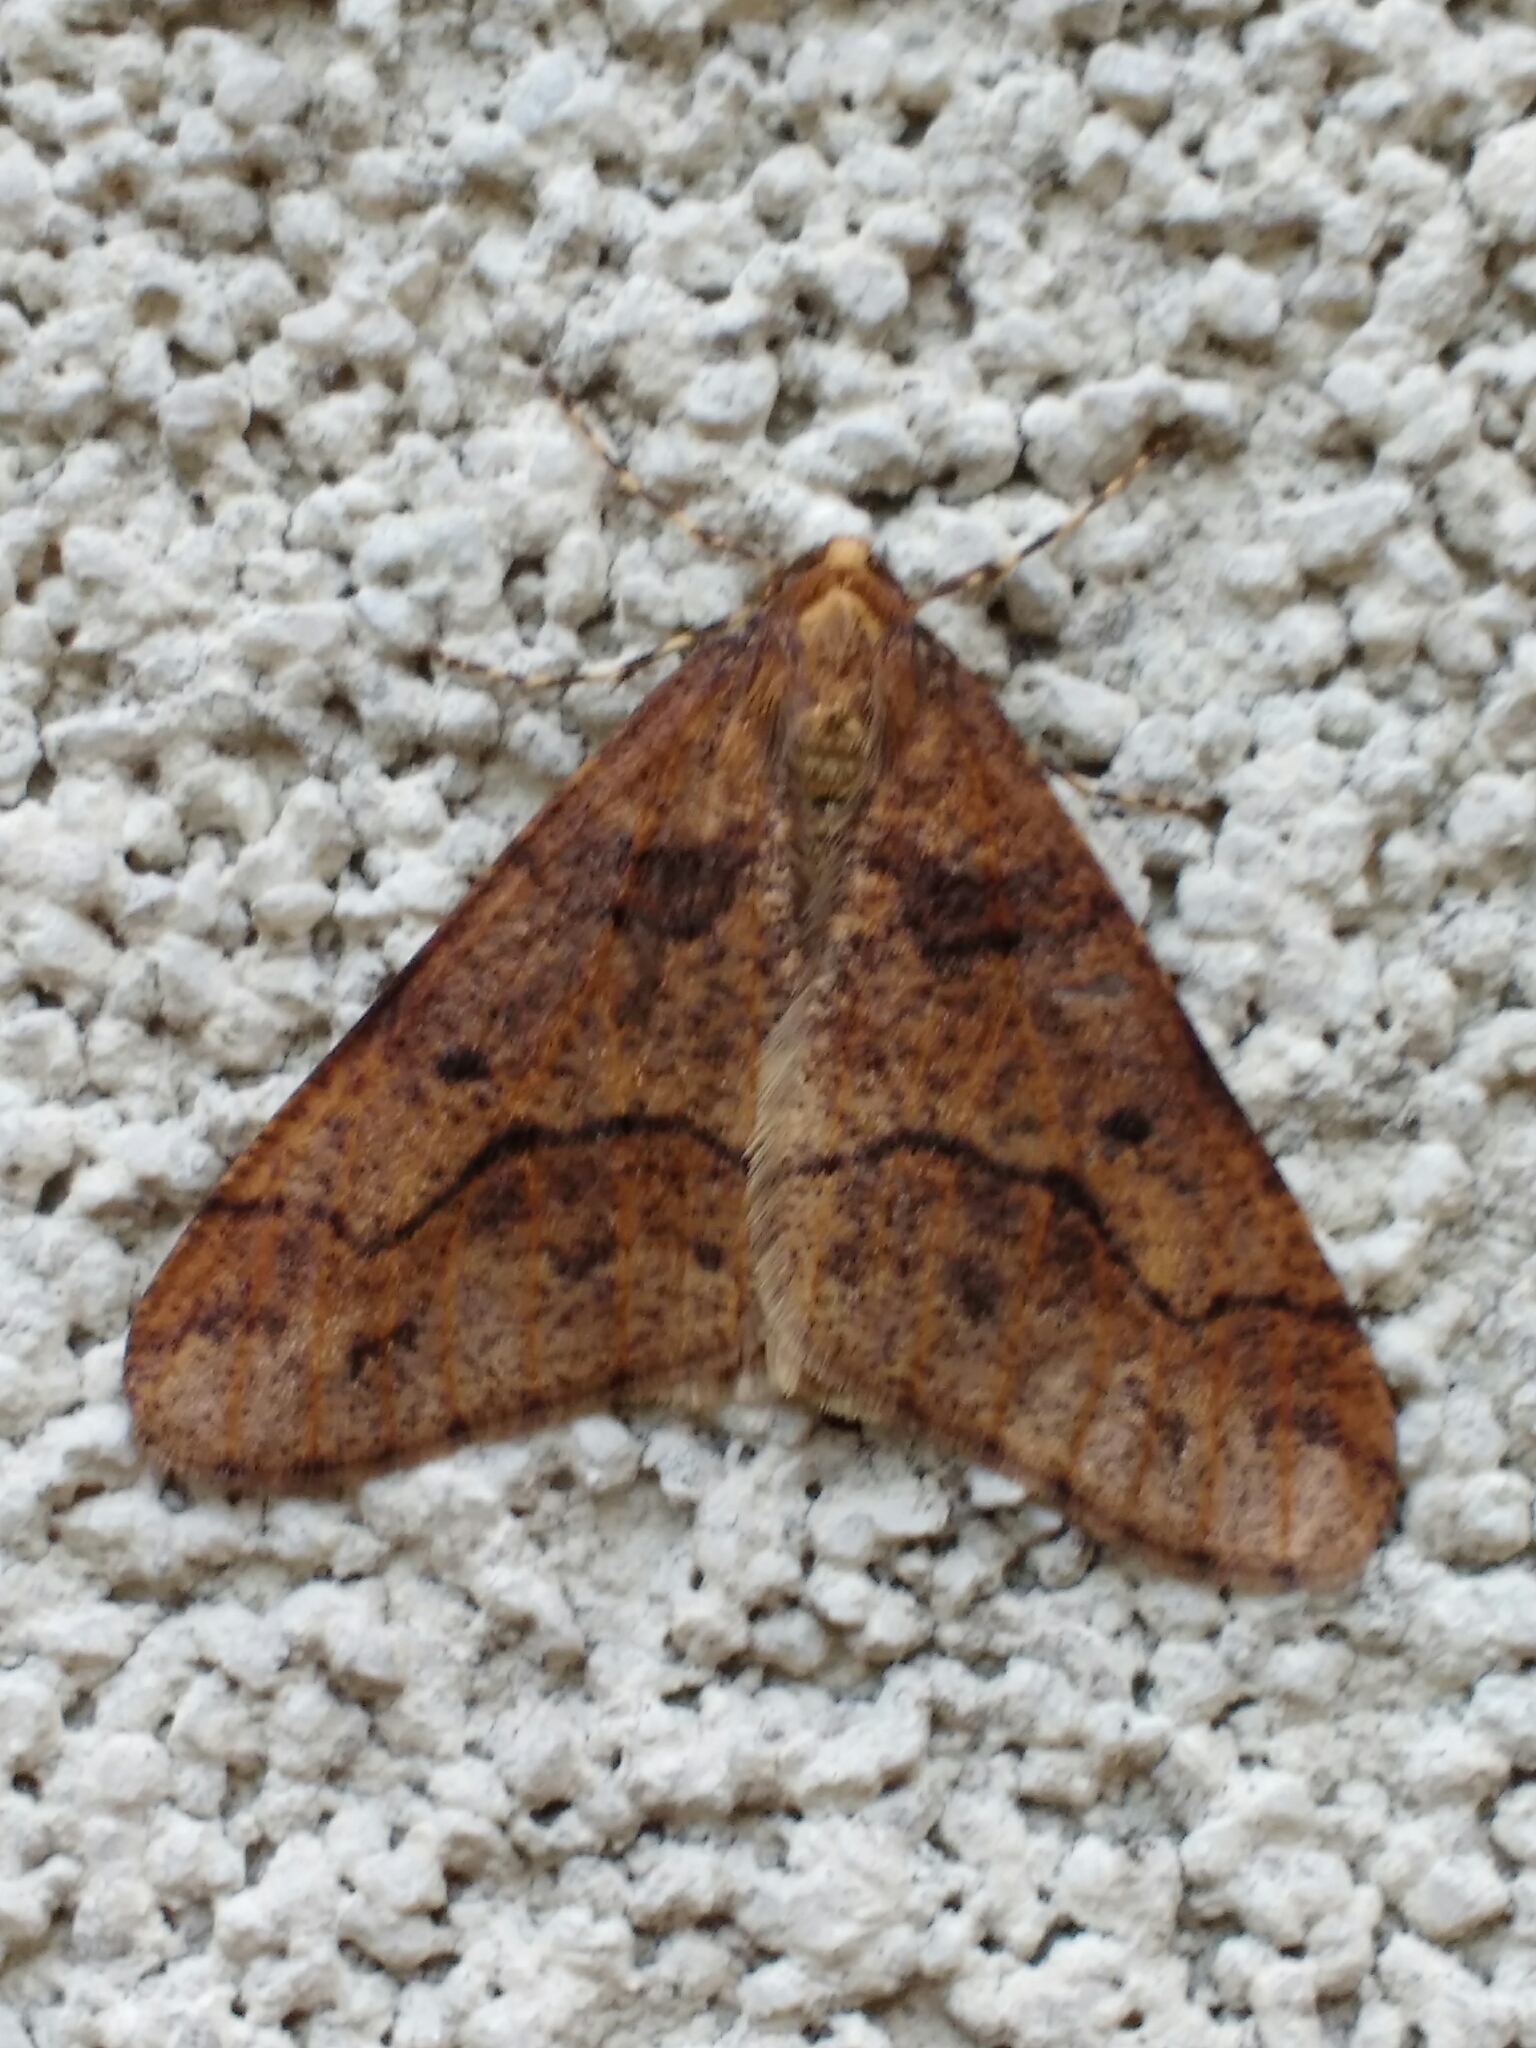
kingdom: Animalia
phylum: Arthropoda
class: Insecta
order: Lepidoptera
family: Geometridae
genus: Erannis
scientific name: Erannis defoliaria
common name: Mottled umber
